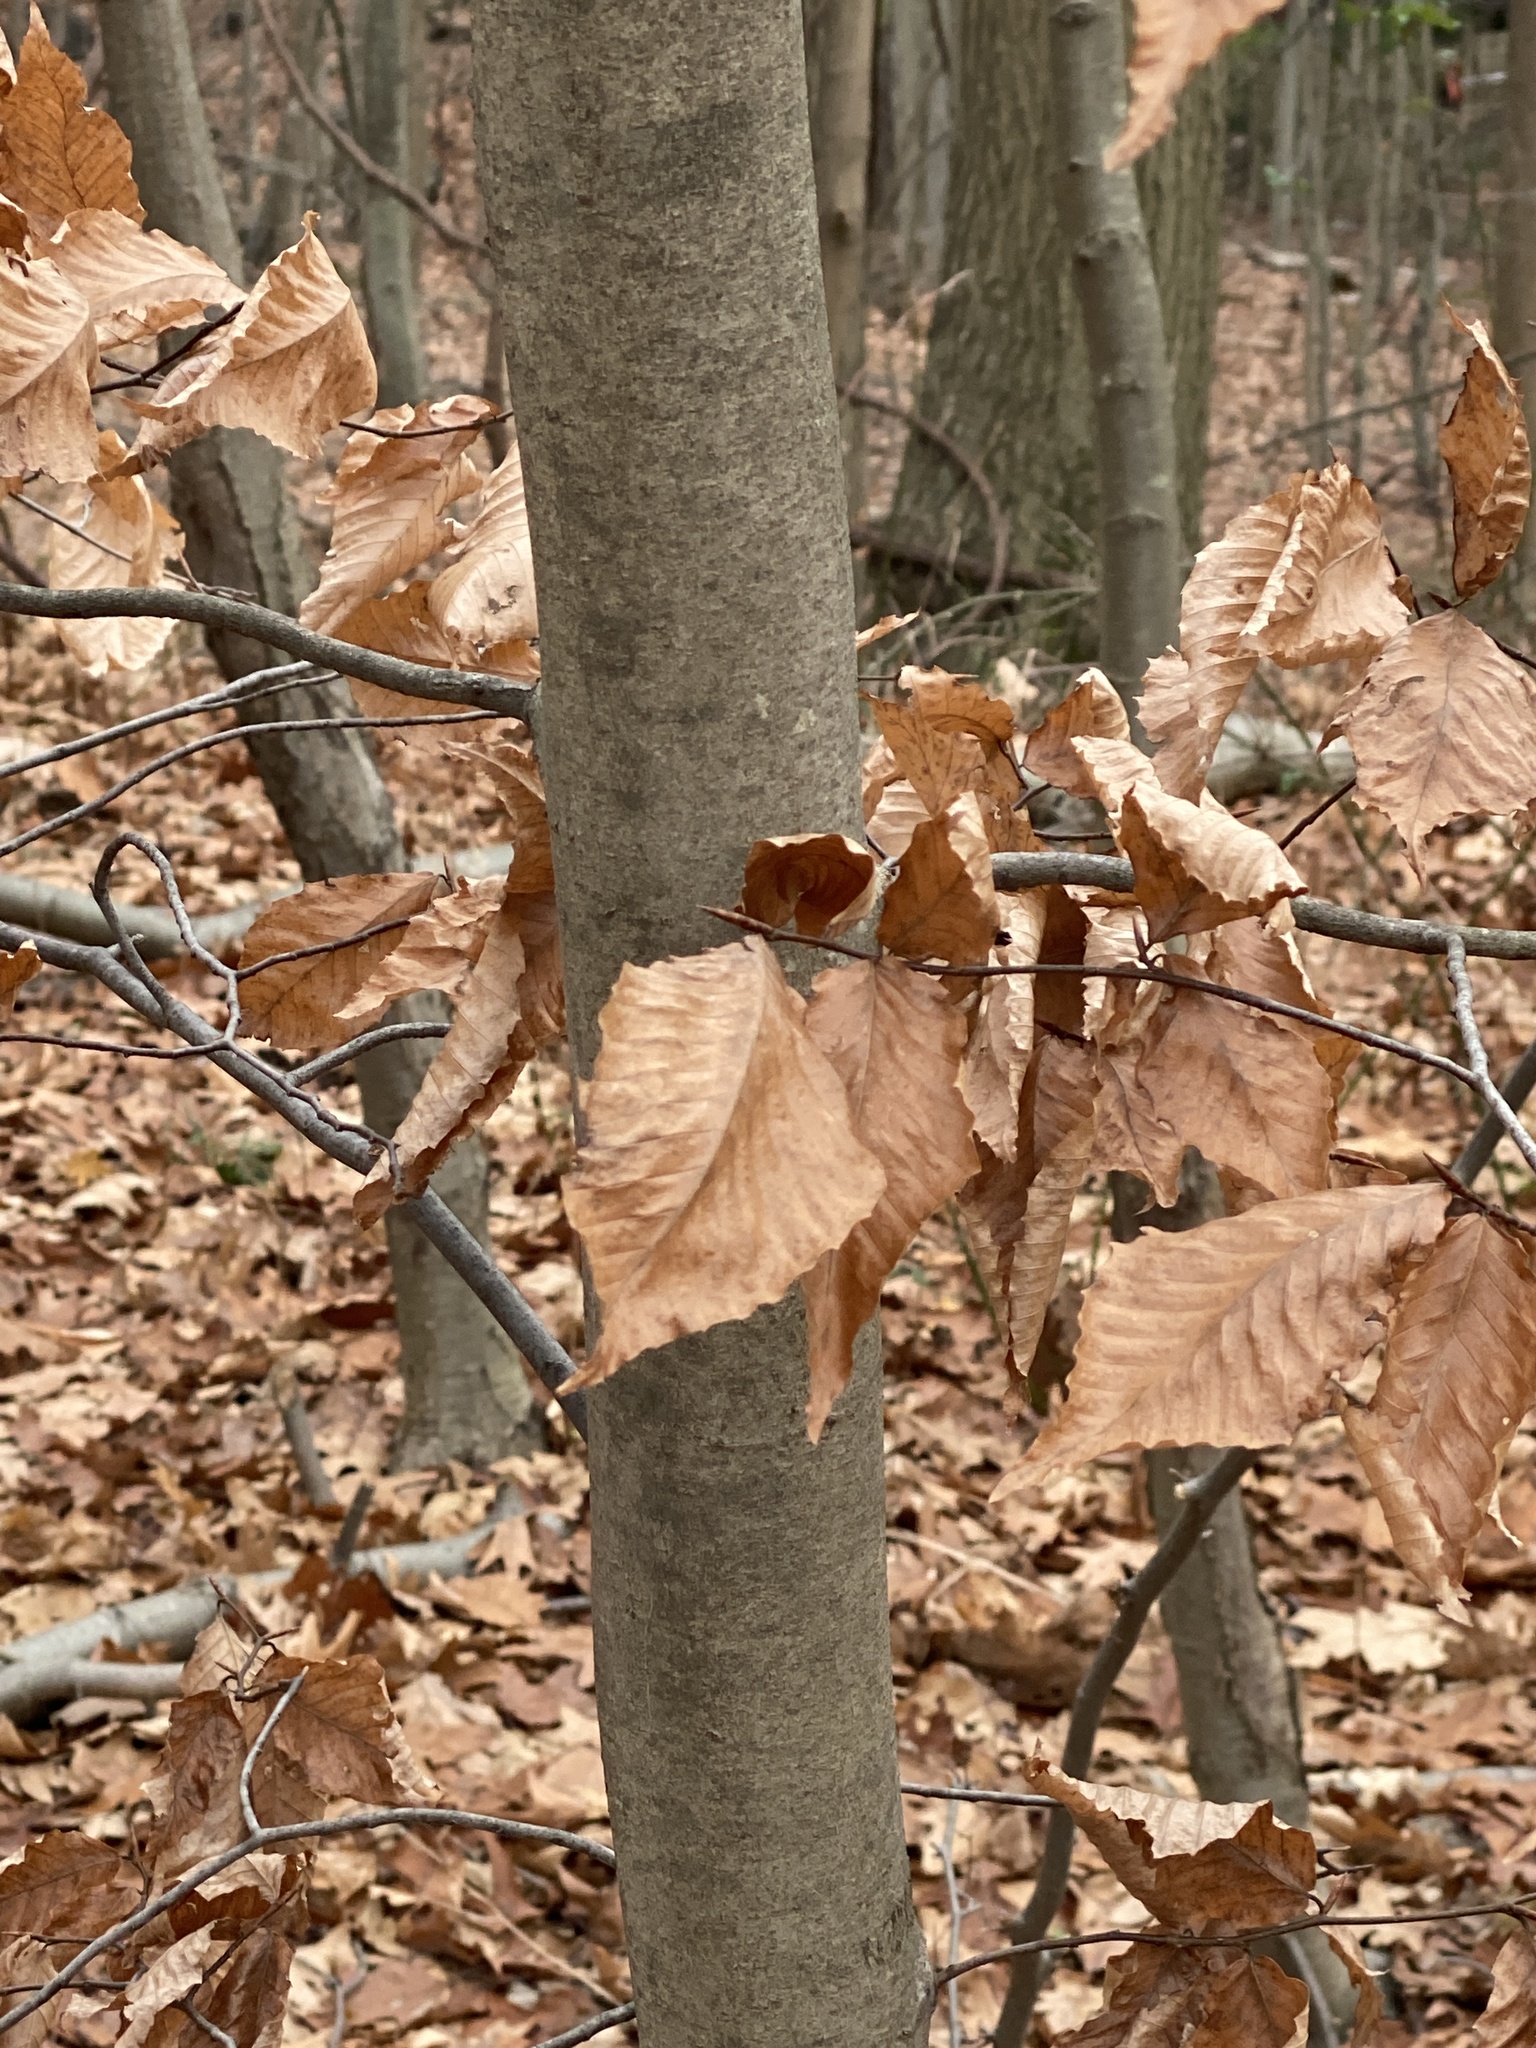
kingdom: Plantae
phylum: Tracheophyta
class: Magnoliopsida
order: Fagales
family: Fagaceae
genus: Fagus
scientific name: Fagus grandifolia
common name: American beech
